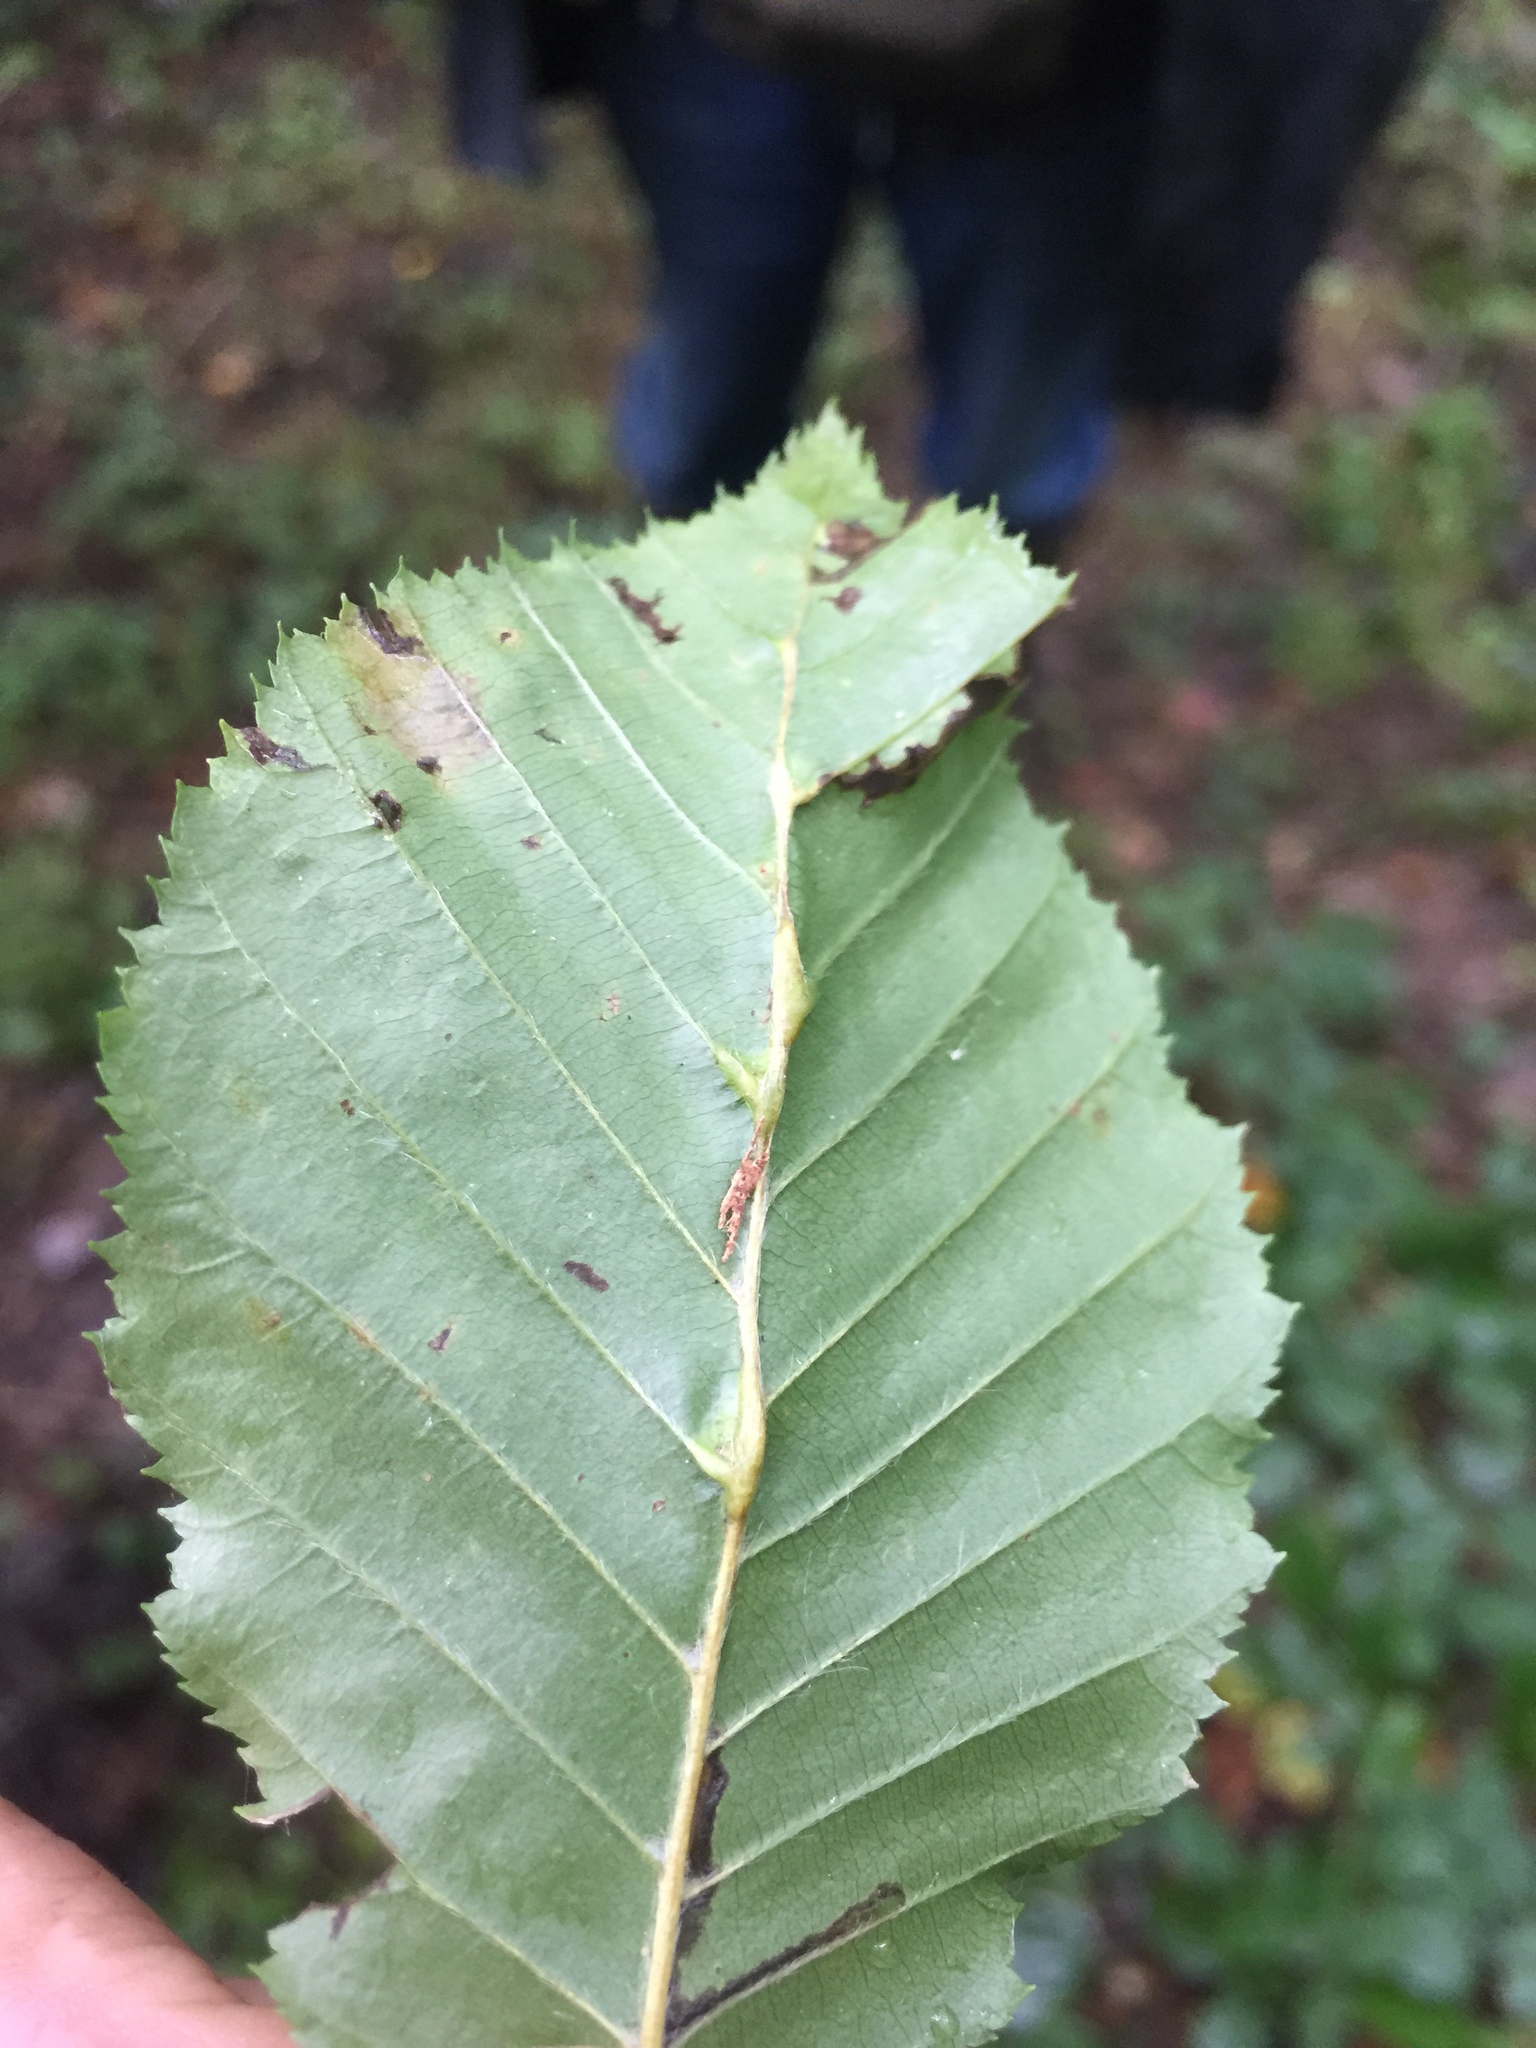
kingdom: Animalia
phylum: Arthropoda
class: Insecta
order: Diptera
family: Cecidomyiidae
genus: Zygiobia
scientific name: Zygiobia carpini
